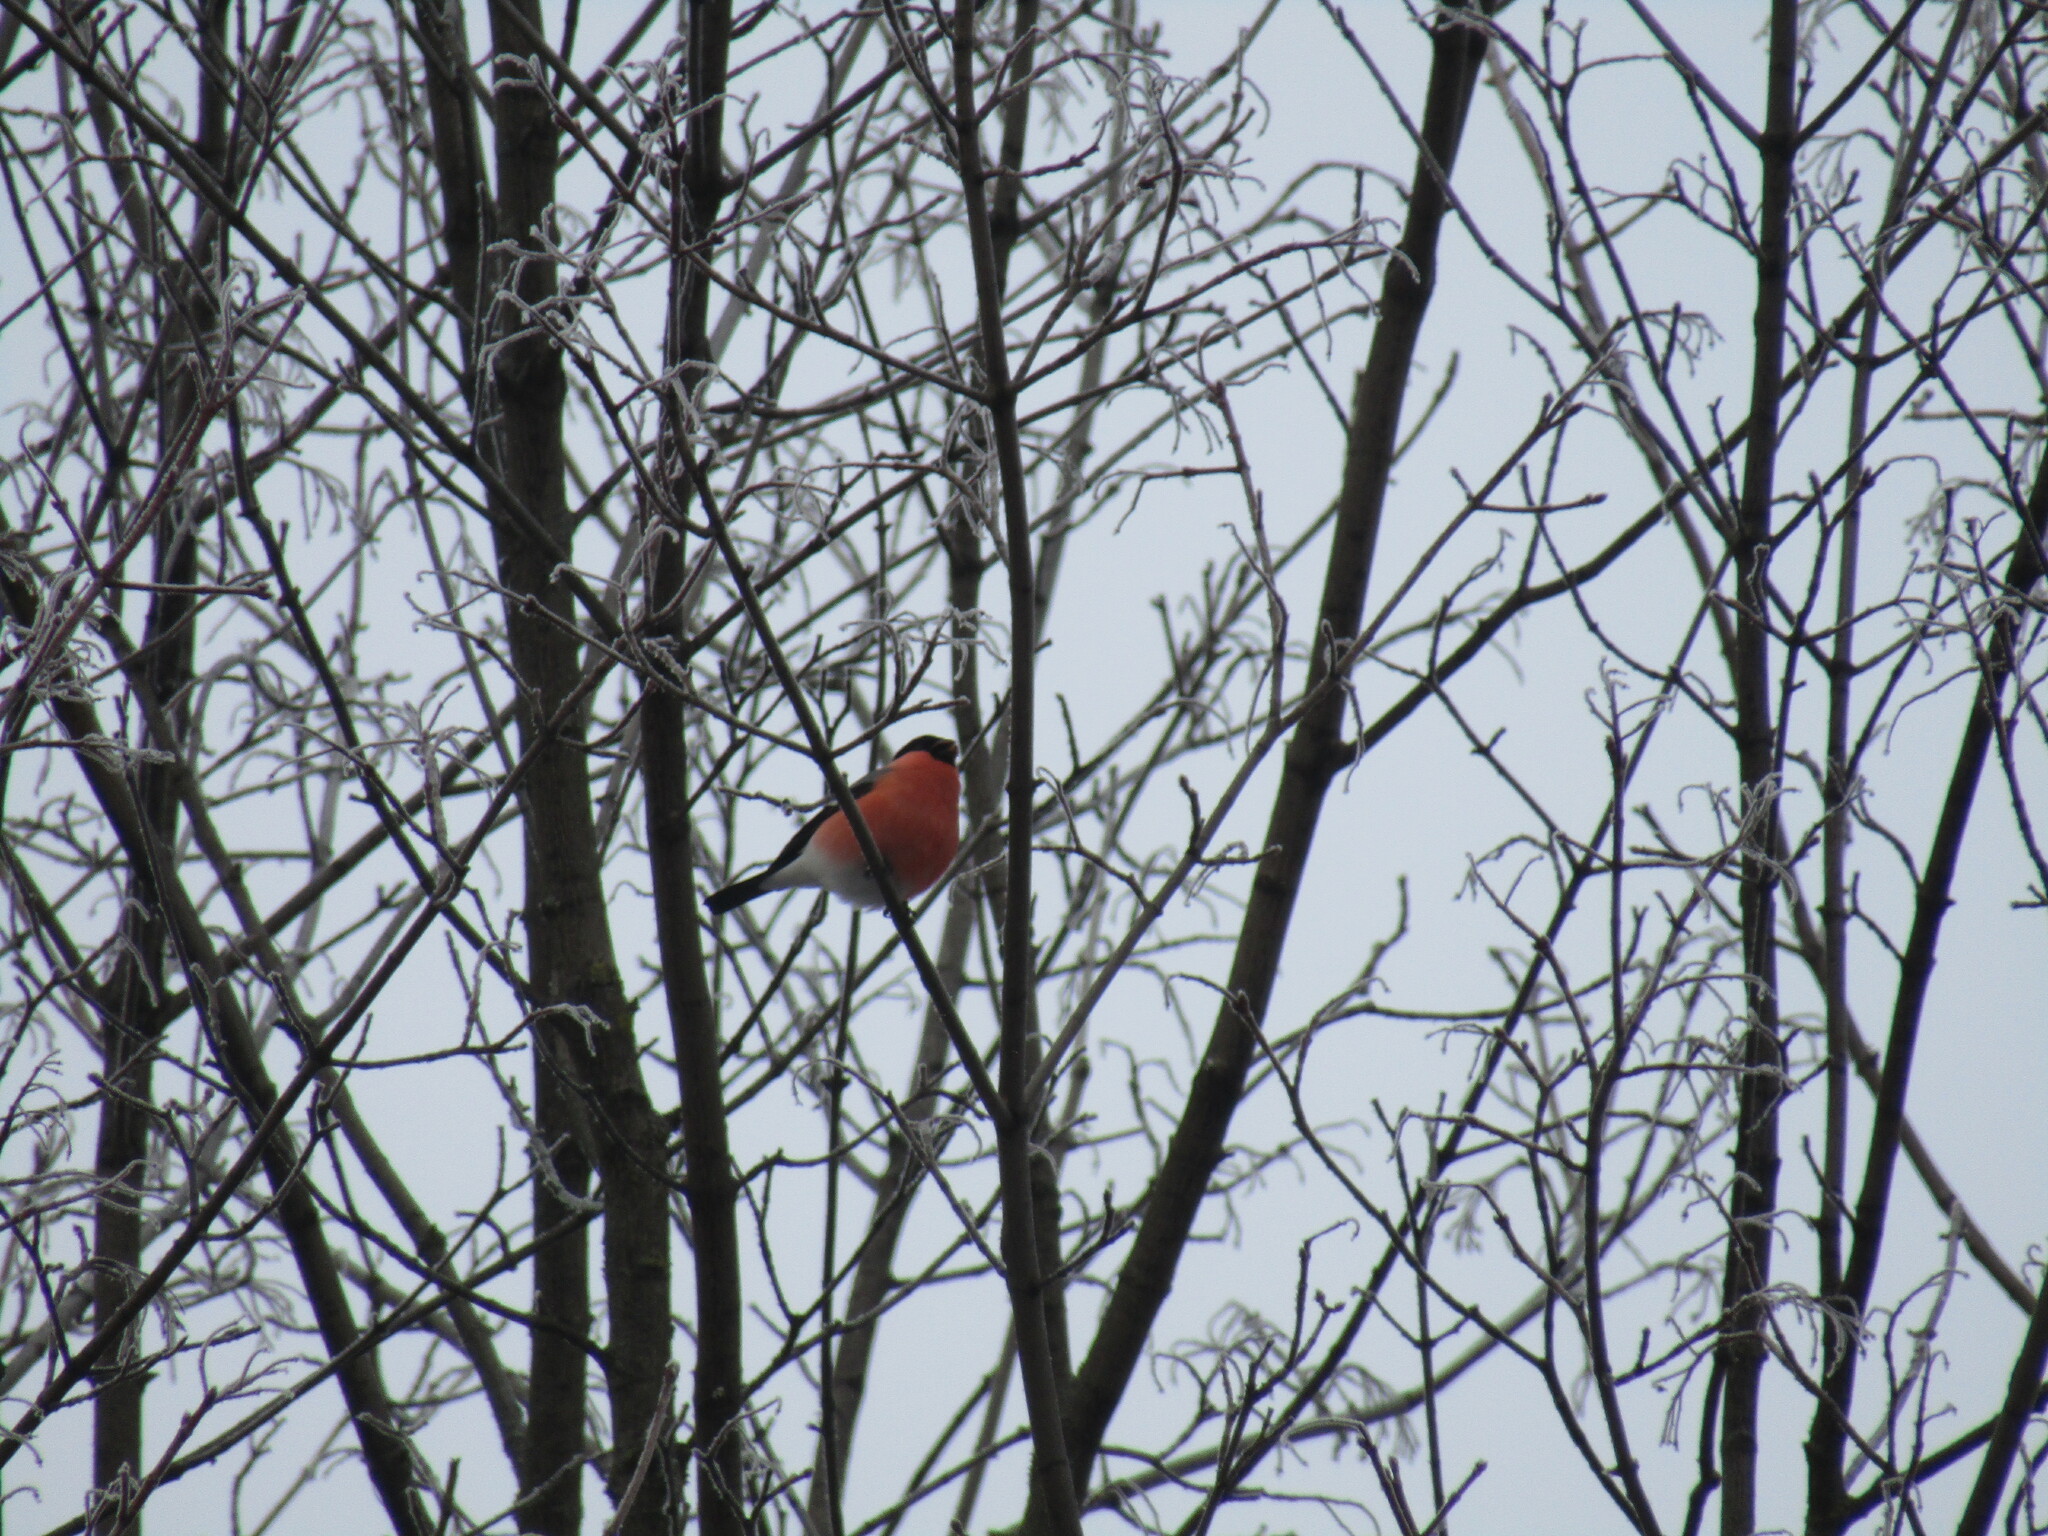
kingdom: Animalia
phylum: Chordata
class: Aves
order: Passeriformes
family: Fringillidae
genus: Pyrrhula
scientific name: Pyrrhula pyrrhula
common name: Eurasian bullfinch
